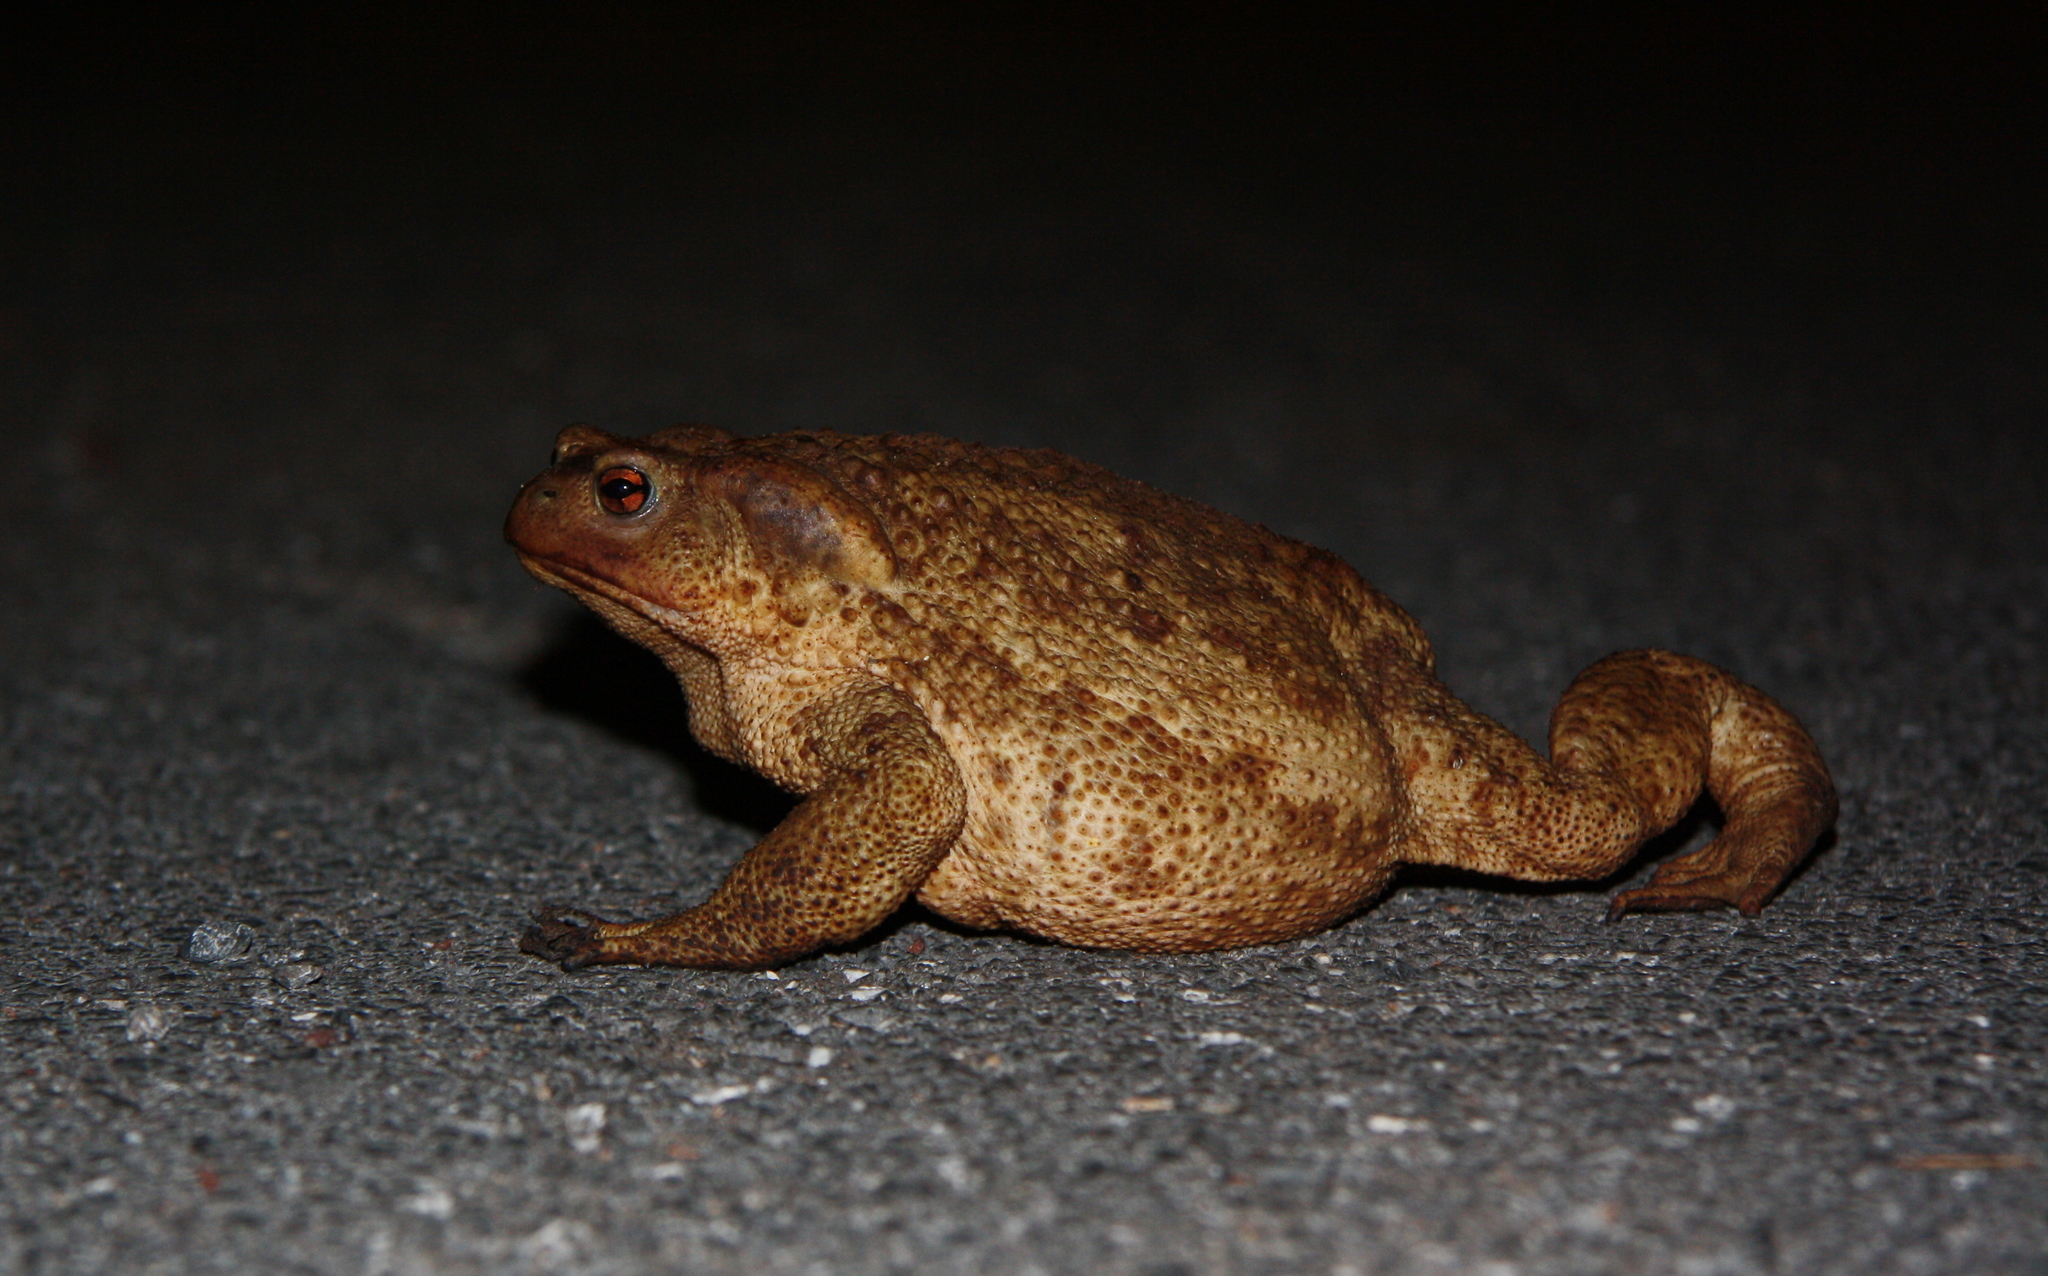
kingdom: Animalia
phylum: Chordata
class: Amphibia
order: Anura
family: Bufonidae
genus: Bufo
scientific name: Bufo bufo
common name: Common toad
